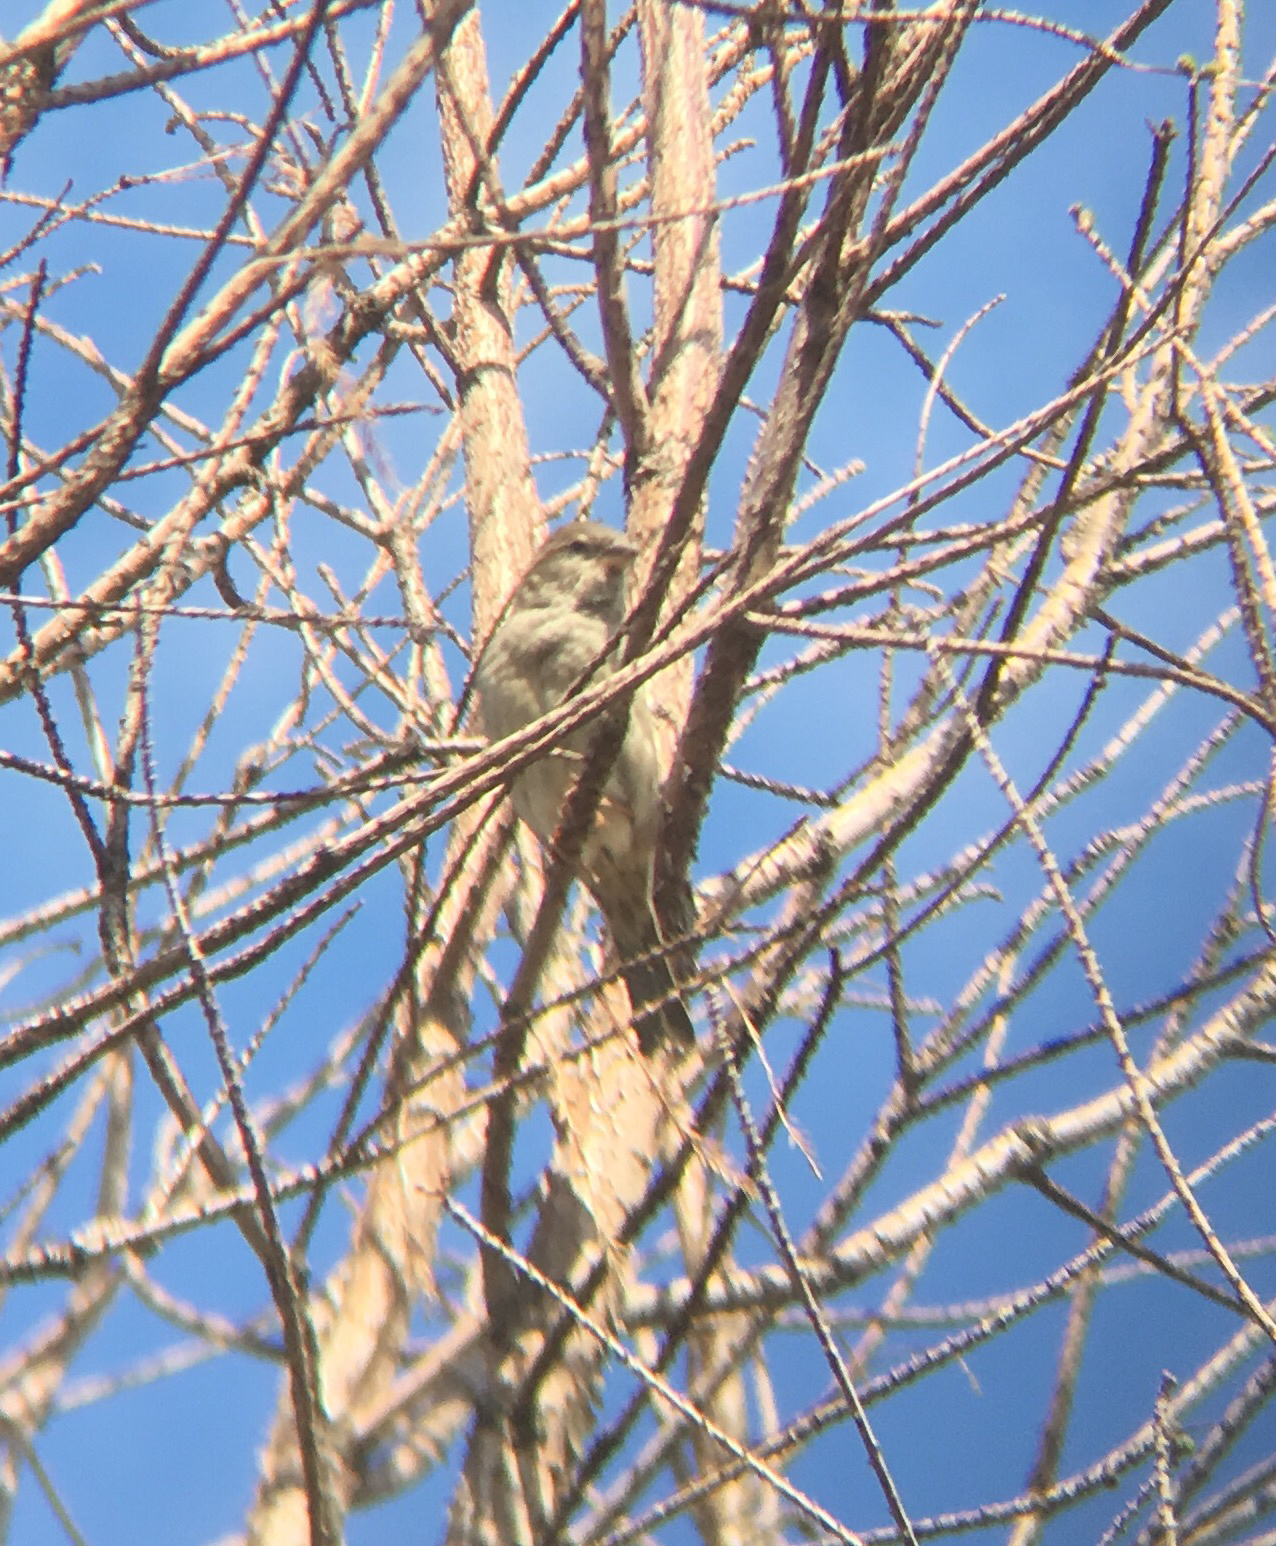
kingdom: Animalia
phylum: Chordata
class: Aves
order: Passeriformes
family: Passeridae
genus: Passer
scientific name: Passer domesticus
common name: House sparrow
